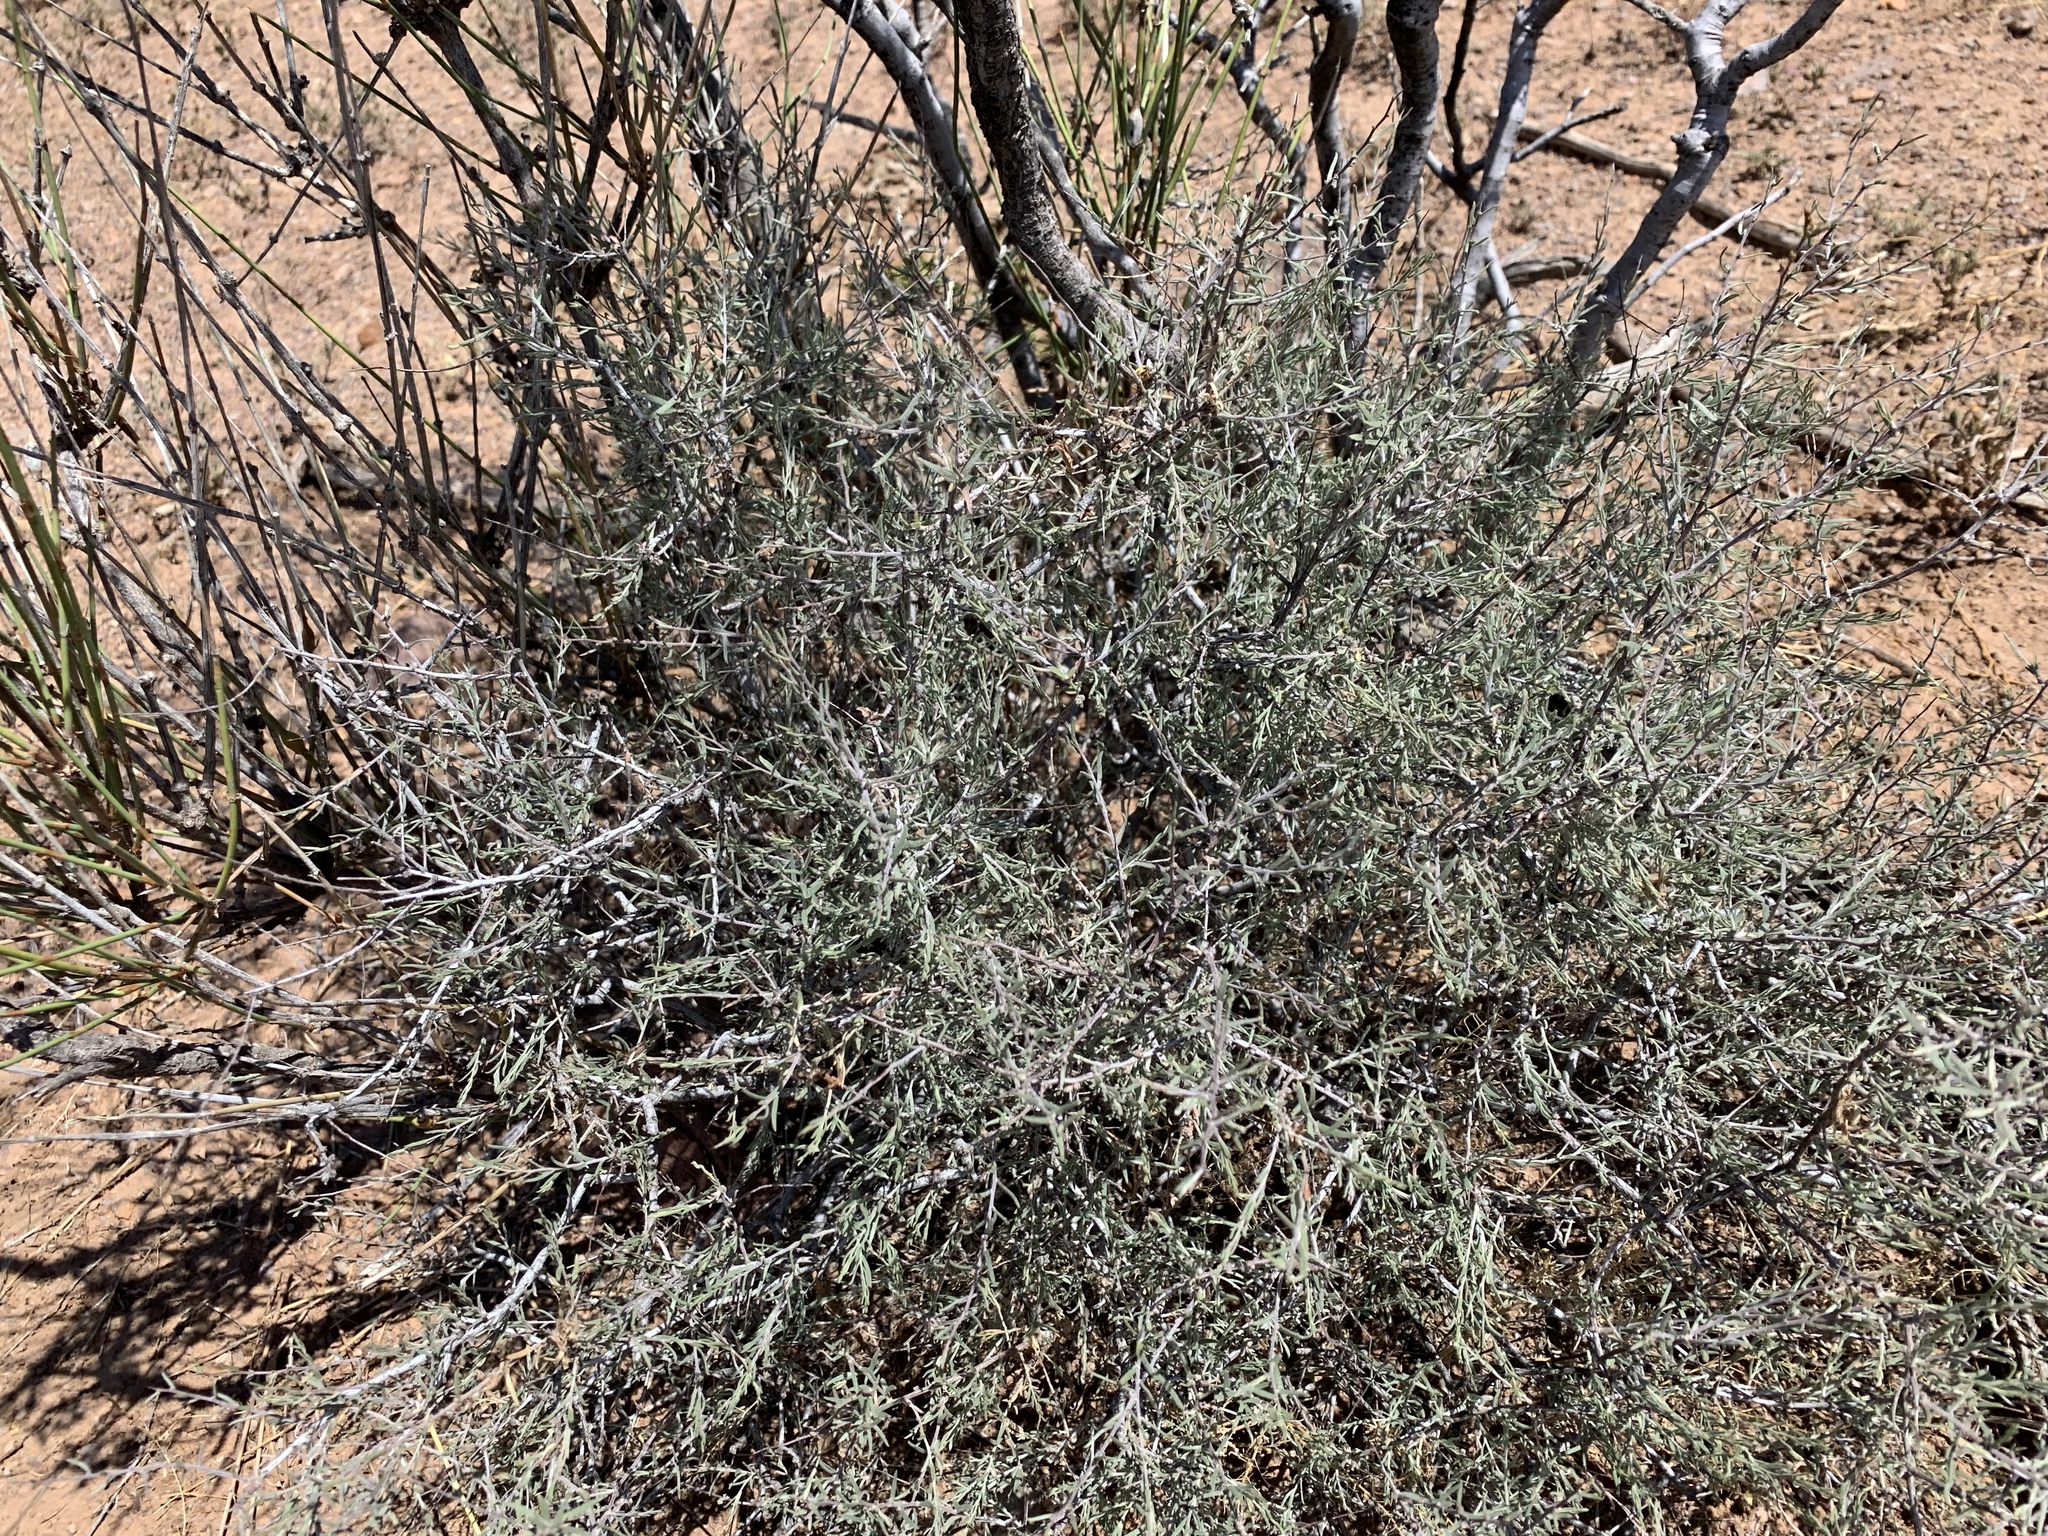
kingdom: Plantae
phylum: Tracheophyta
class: Magnoliopsida
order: Zygophyllales
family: Krameriaceae
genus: Krameria
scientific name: Krameria erecta
